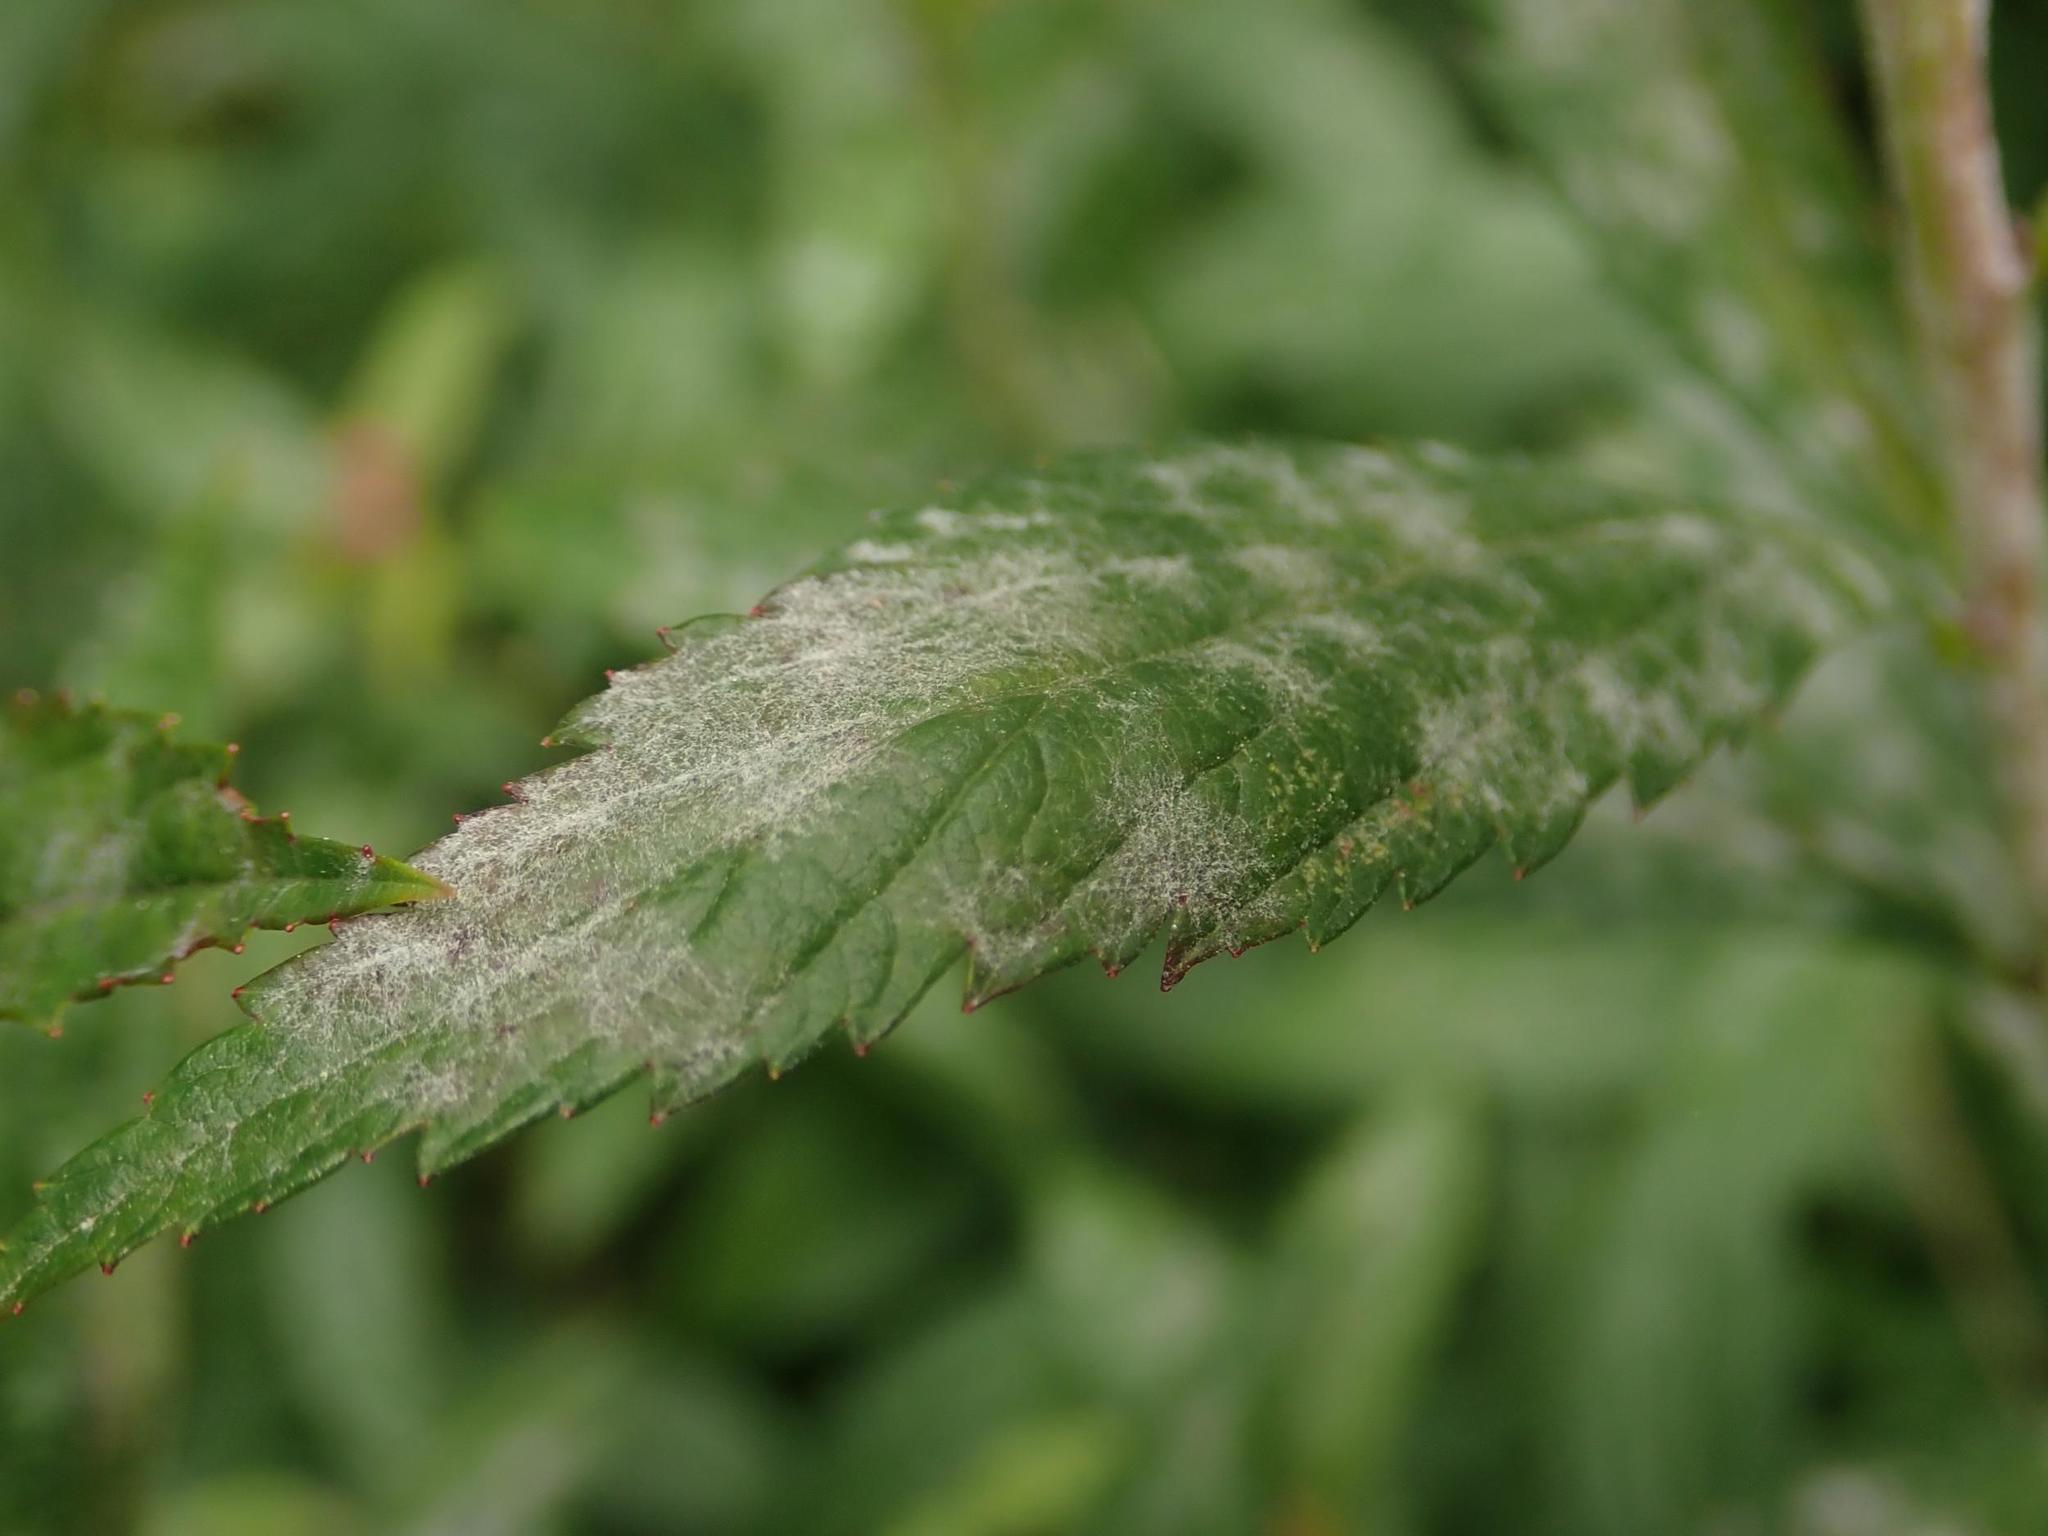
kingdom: Fungi
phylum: Ascomycota
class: Leotiomycetes
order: Helotiales
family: Erysiphaceae
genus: Podosphaera
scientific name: Podosphaera spiraeae
